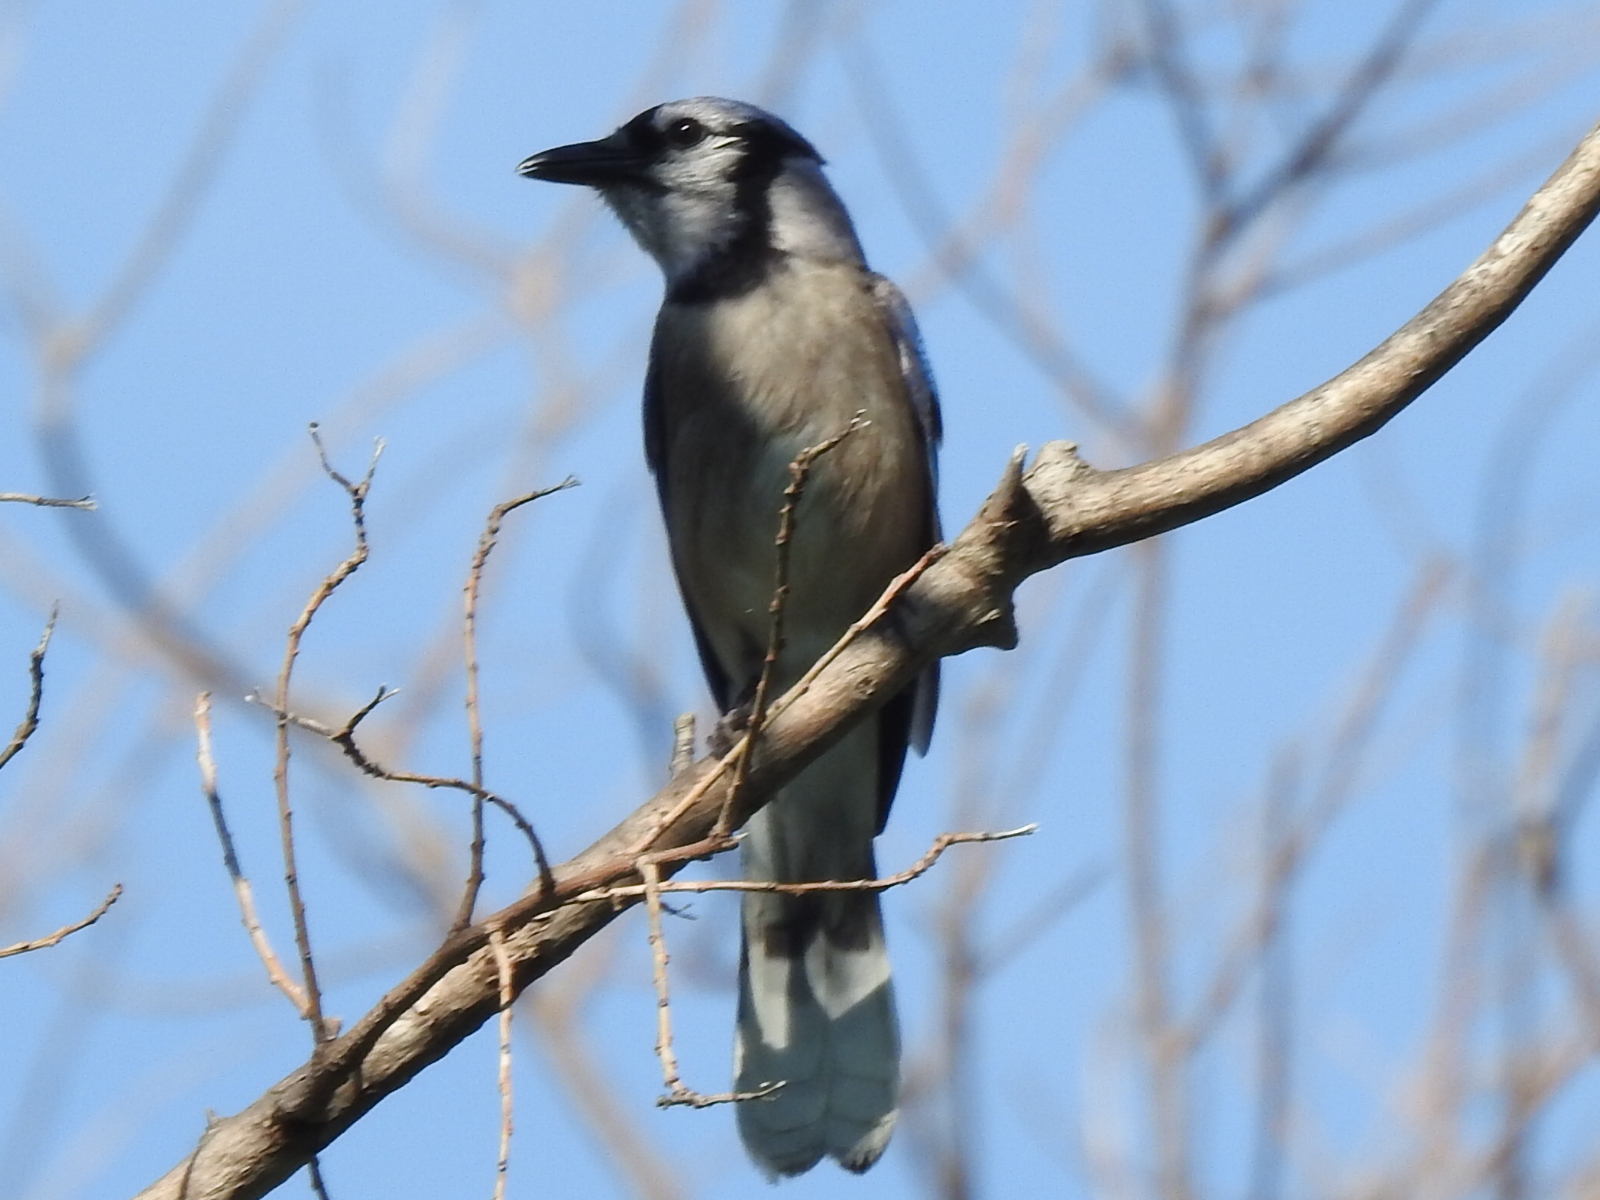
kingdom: Animalia
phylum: Chordata
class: Aves
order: Passeriformes
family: Corvidae
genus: Cyanocitta
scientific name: Cyanocitta cristata
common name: Blue jay
